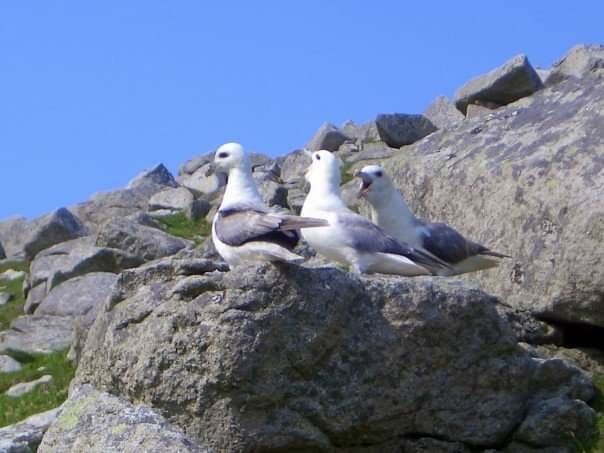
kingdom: Animalia
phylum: Chordata
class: Aves
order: Procellariiformes
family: Procellariidae
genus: Fulmarus
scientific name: Fulmarus glacialis
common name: Northern fulmar
